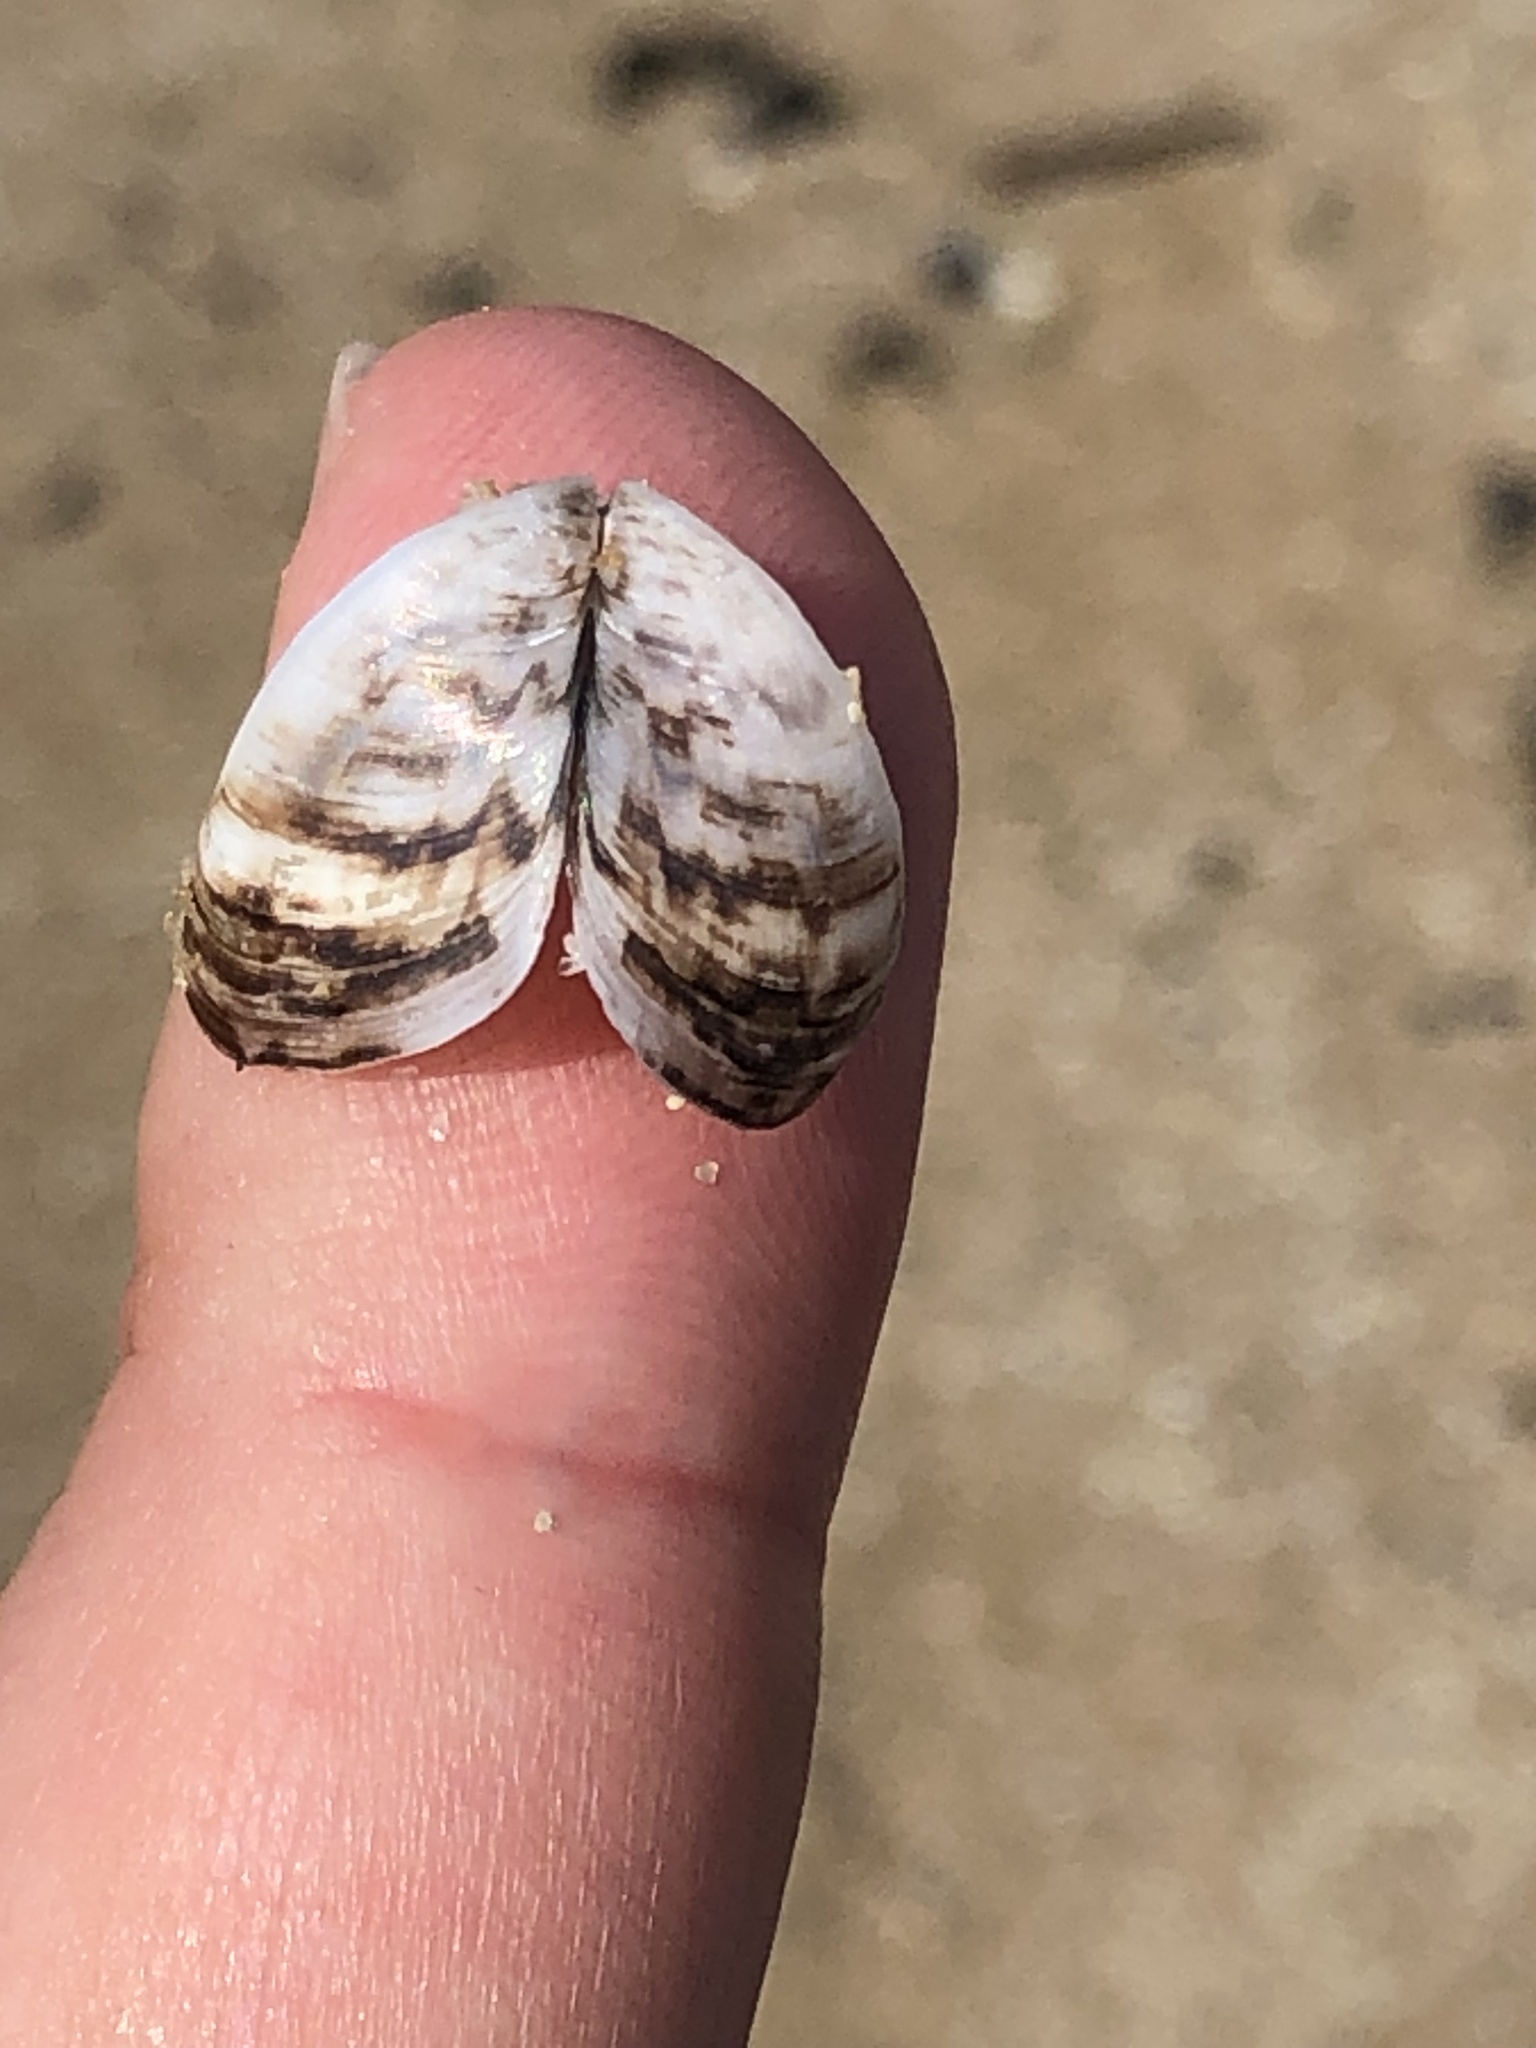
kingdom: Animalia
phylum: Mollusca
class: Bivalvia
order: Myida
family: Dreissenidae
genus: Dreissena
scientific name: Dreissena polymorpha
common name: Zebra mussel
